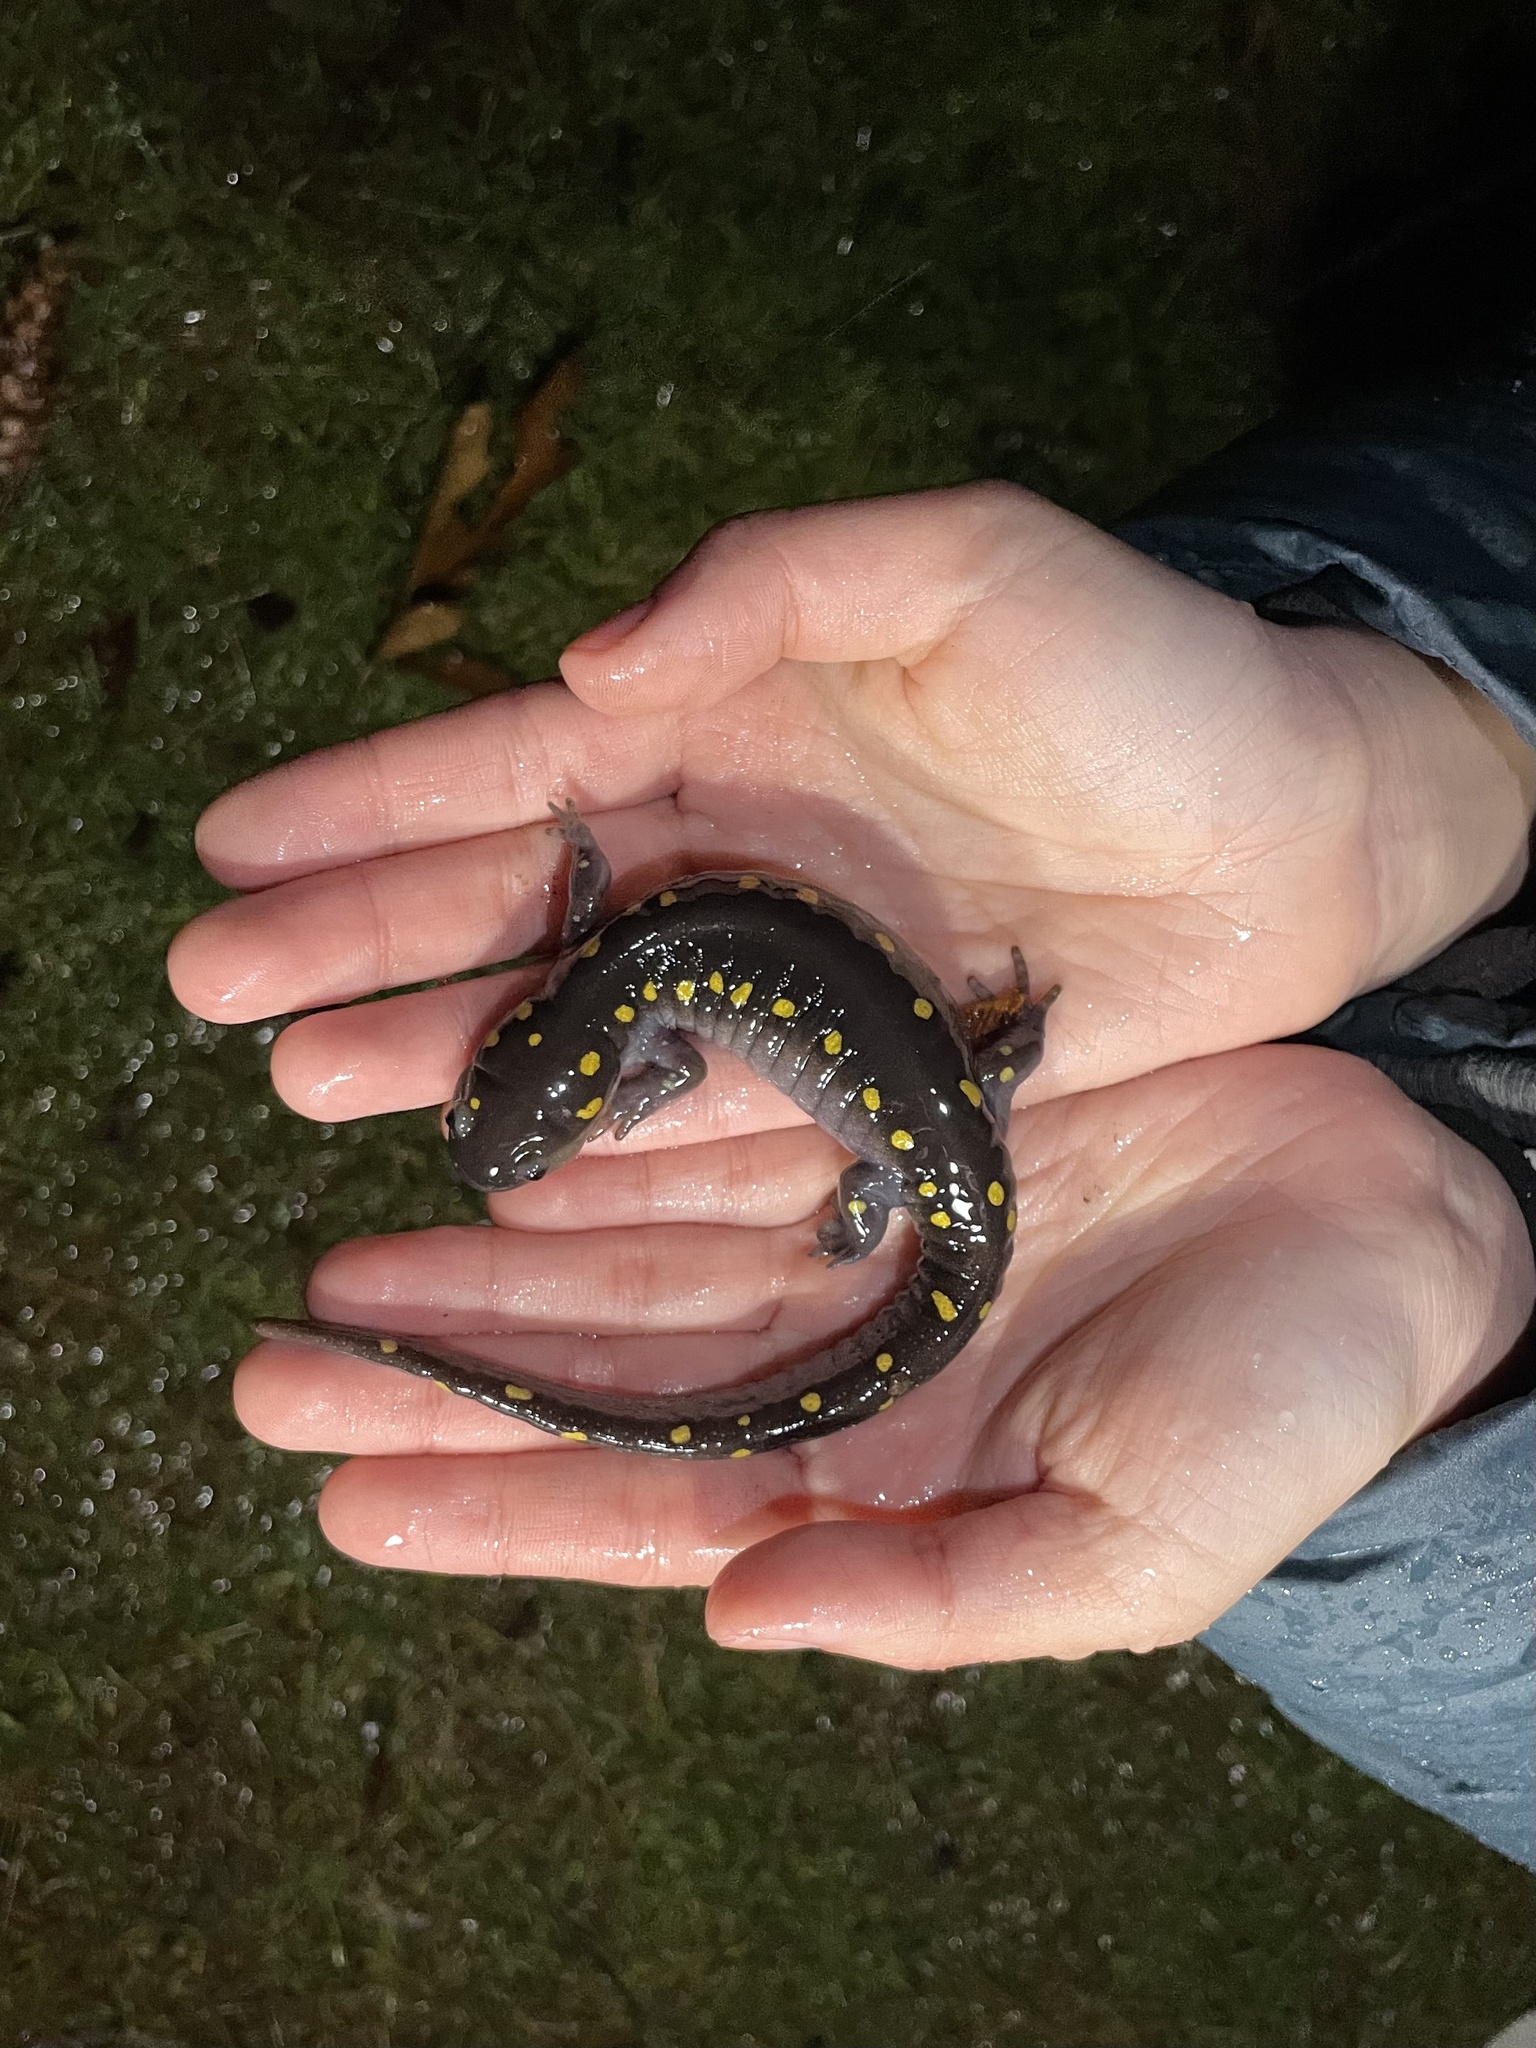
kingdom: Animalia
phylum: Chordata
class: Amphibia
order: Caudata
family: Ambystomatidae
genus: Ambystoma
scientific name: Ambystoma maculatum
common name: Spotted salamander
